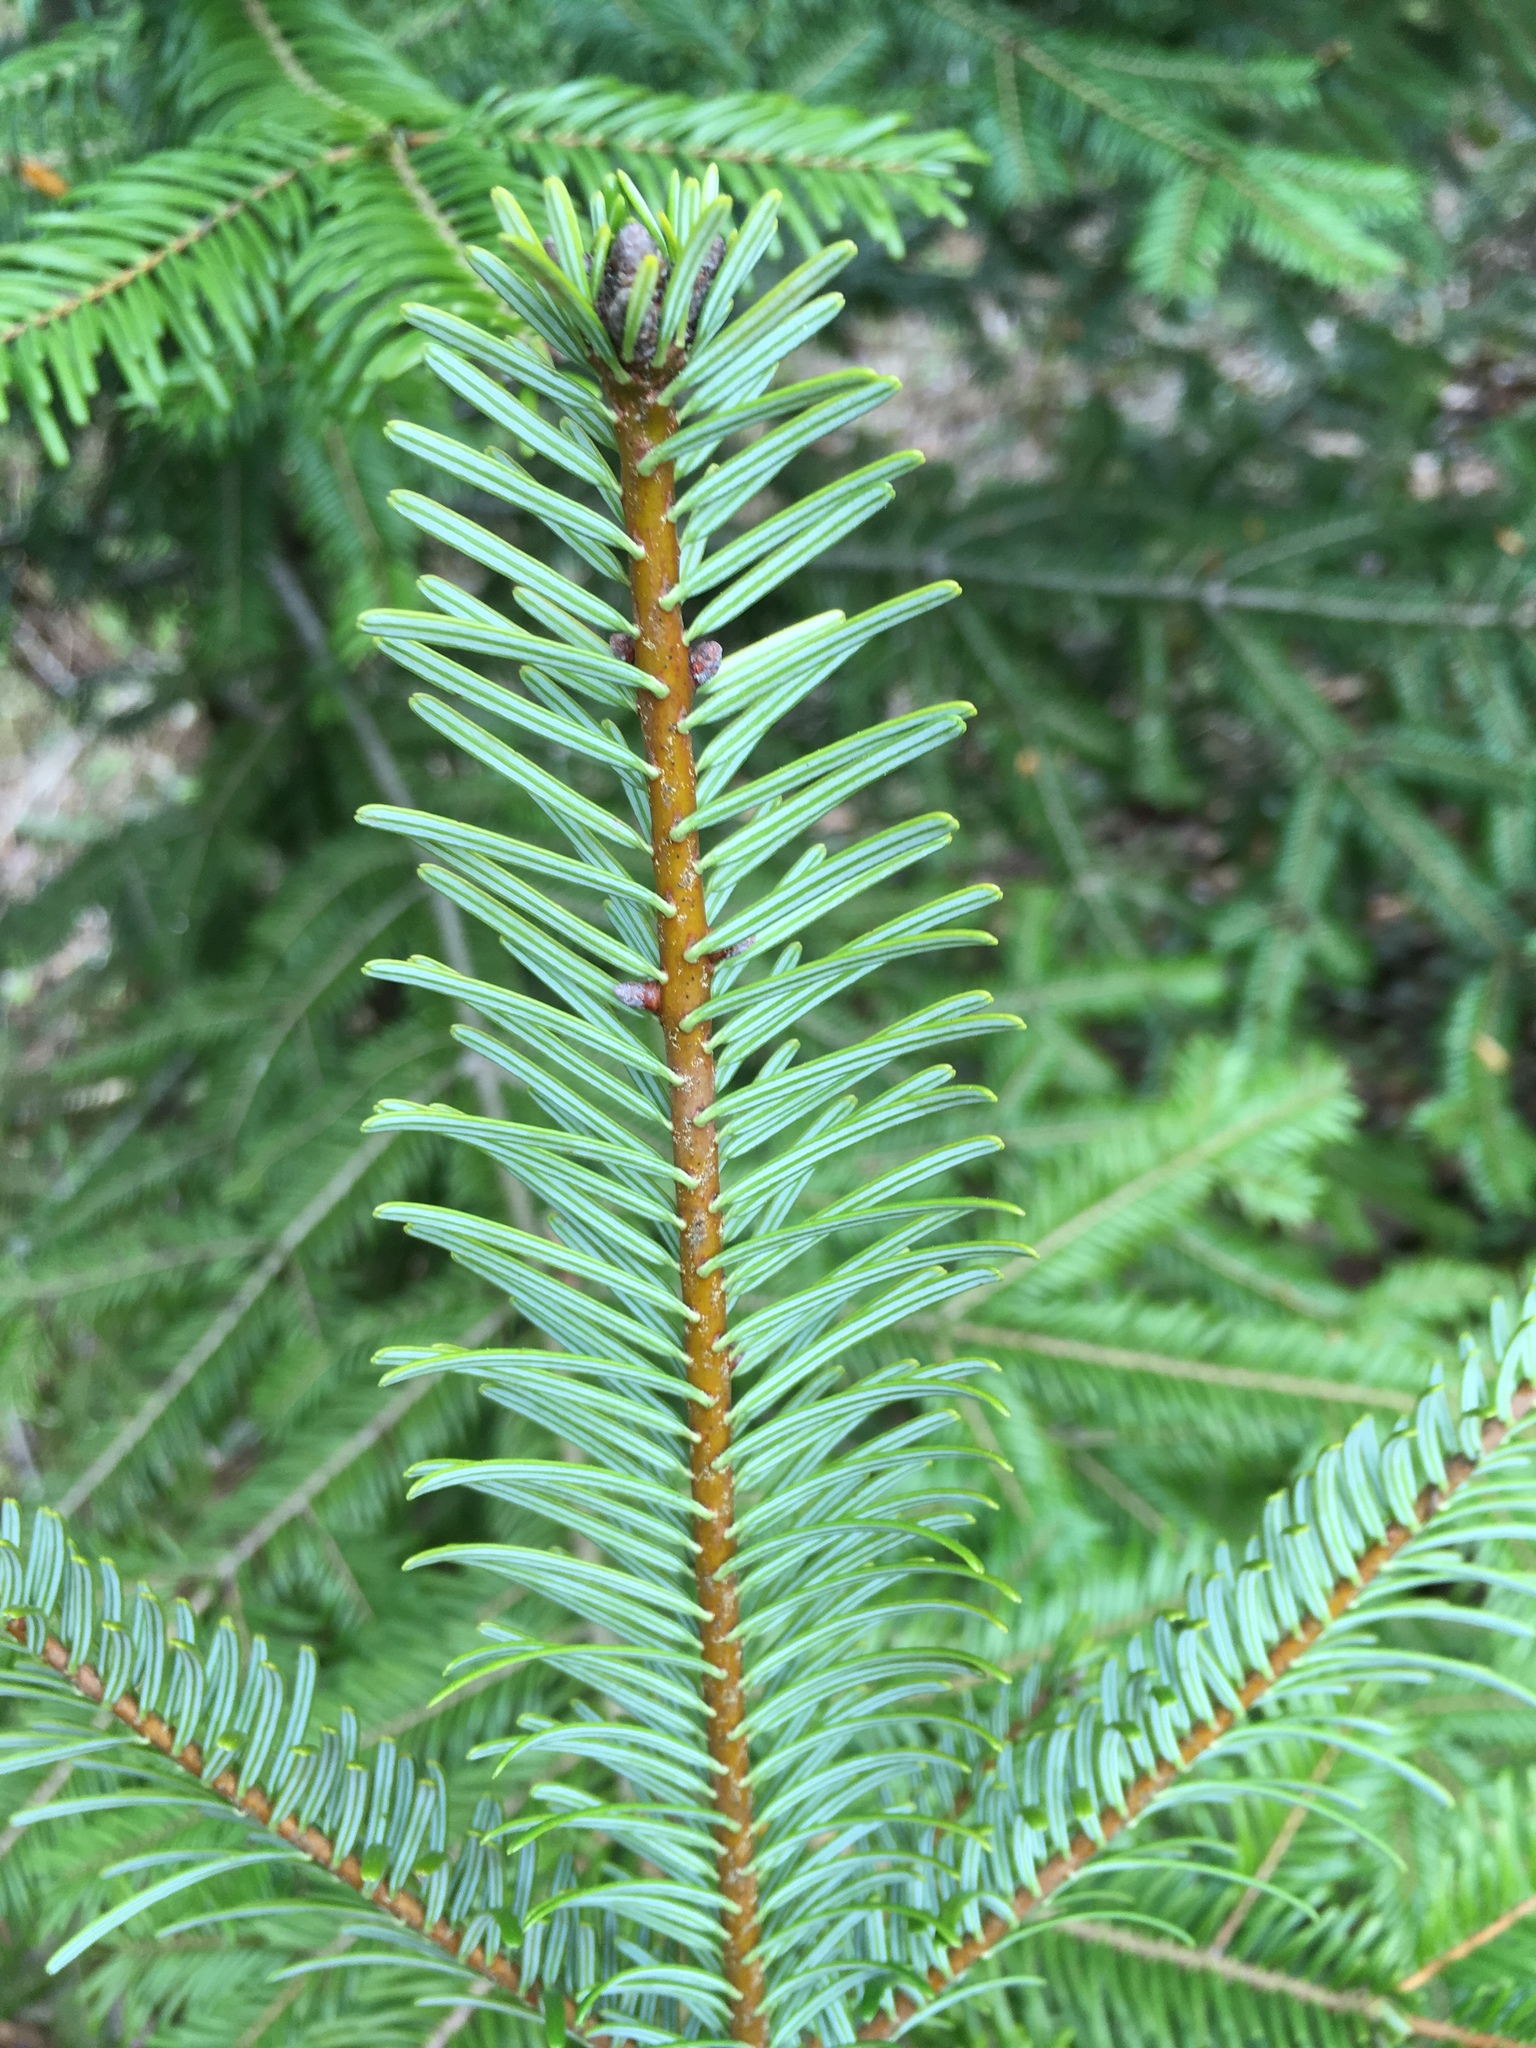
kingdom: Plantae
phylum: Tracheophyta
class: Pinopsida
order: Pinales
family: Pinaceae
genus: Abies
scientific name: Abies grandis
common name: Giant fir
